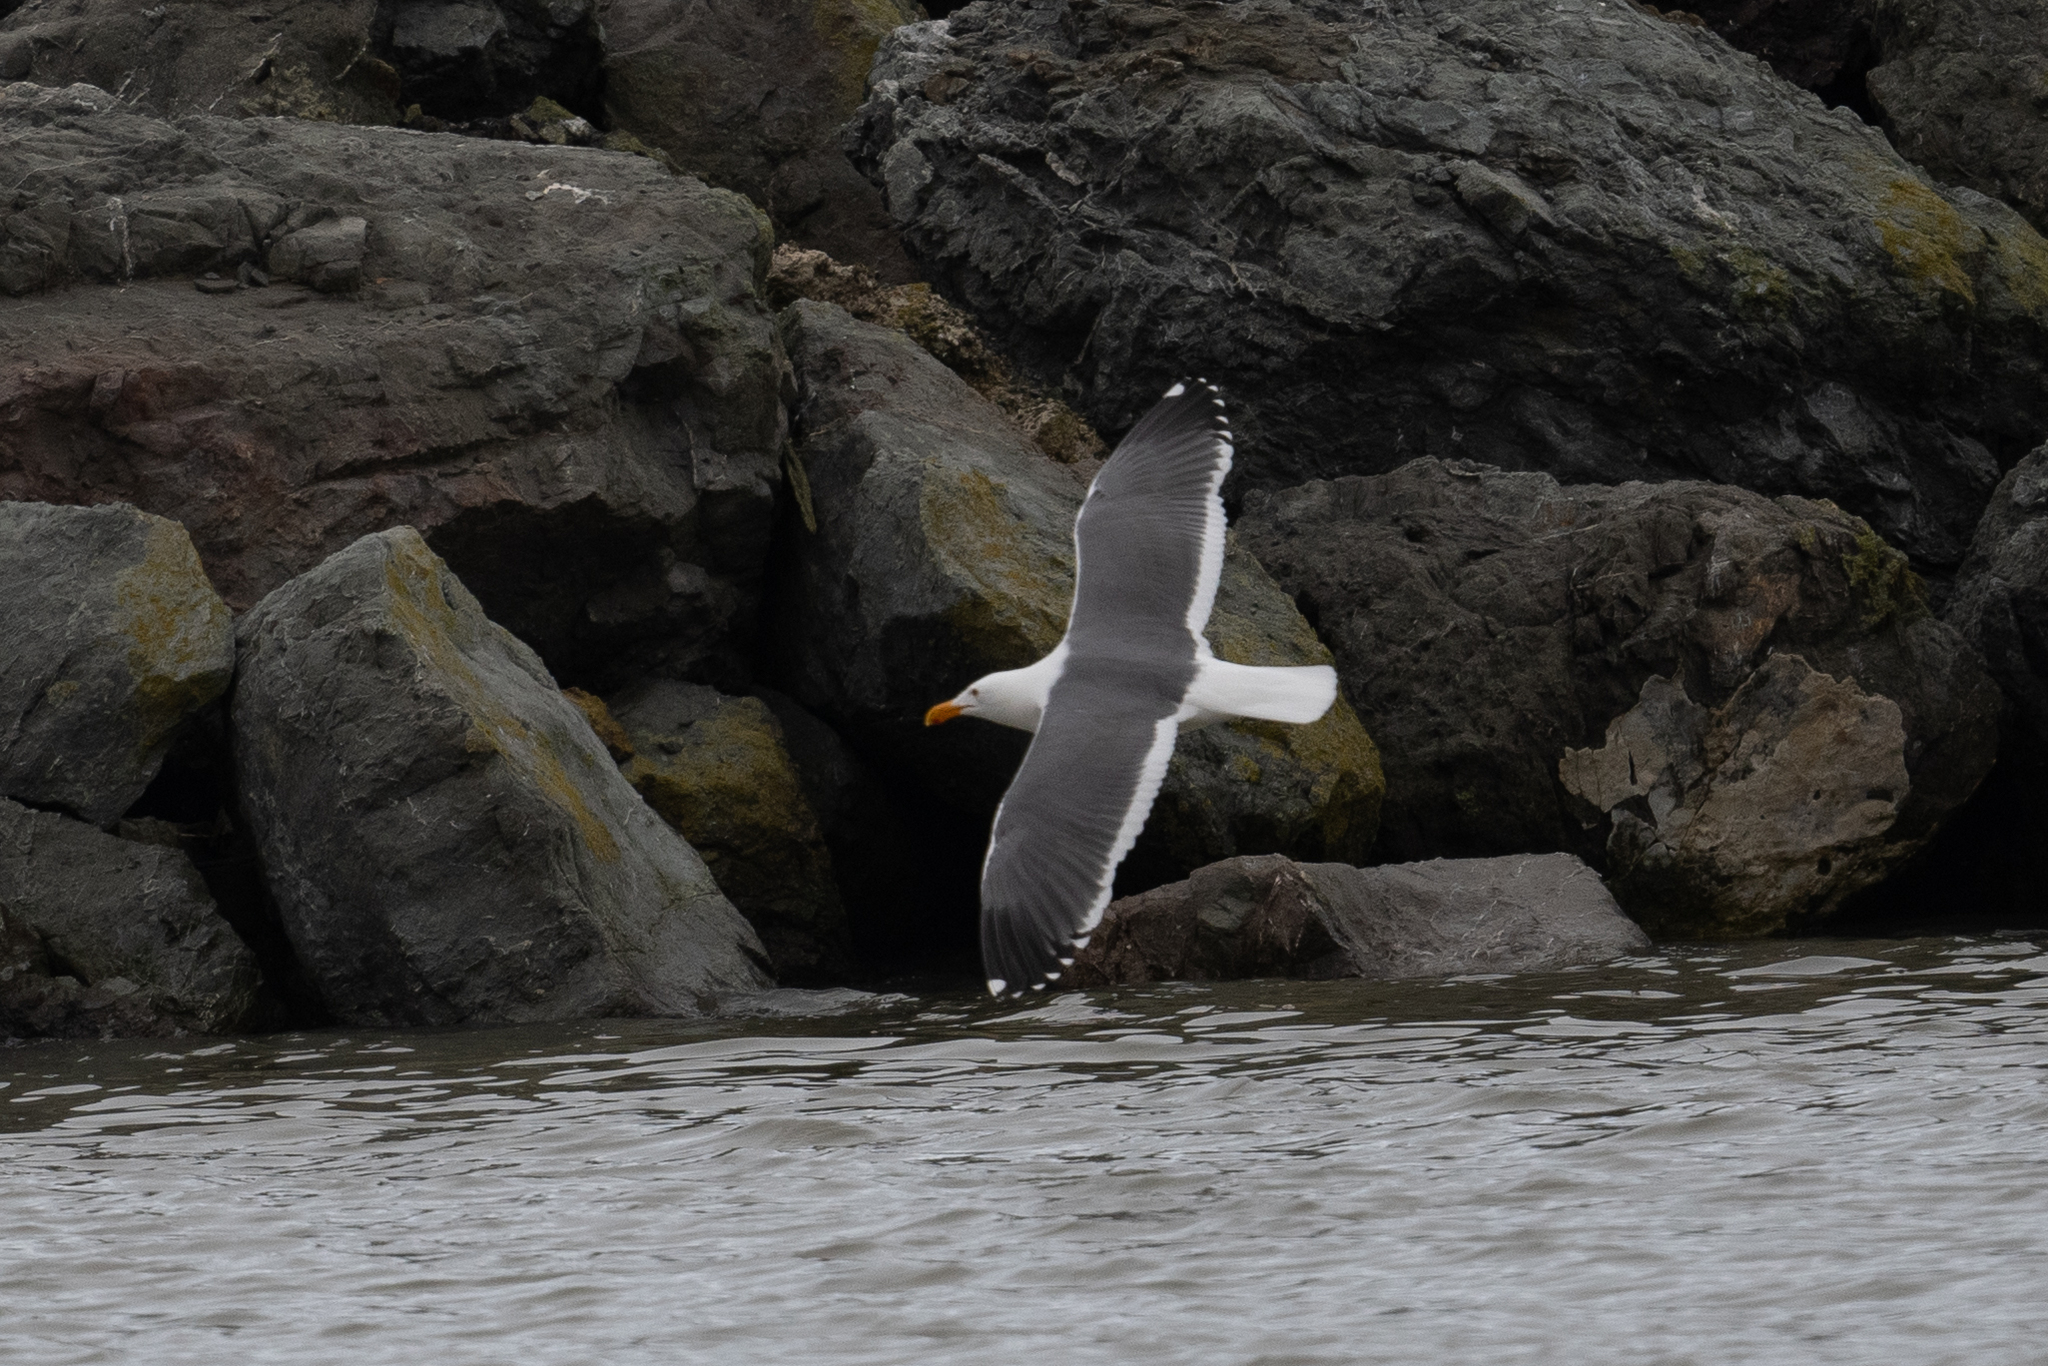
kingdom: Animalia
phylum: Chordata
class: Aves
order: Charadriiformes
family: Laridae
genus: Larus
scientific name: Larus occidentalis
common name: Western gull
